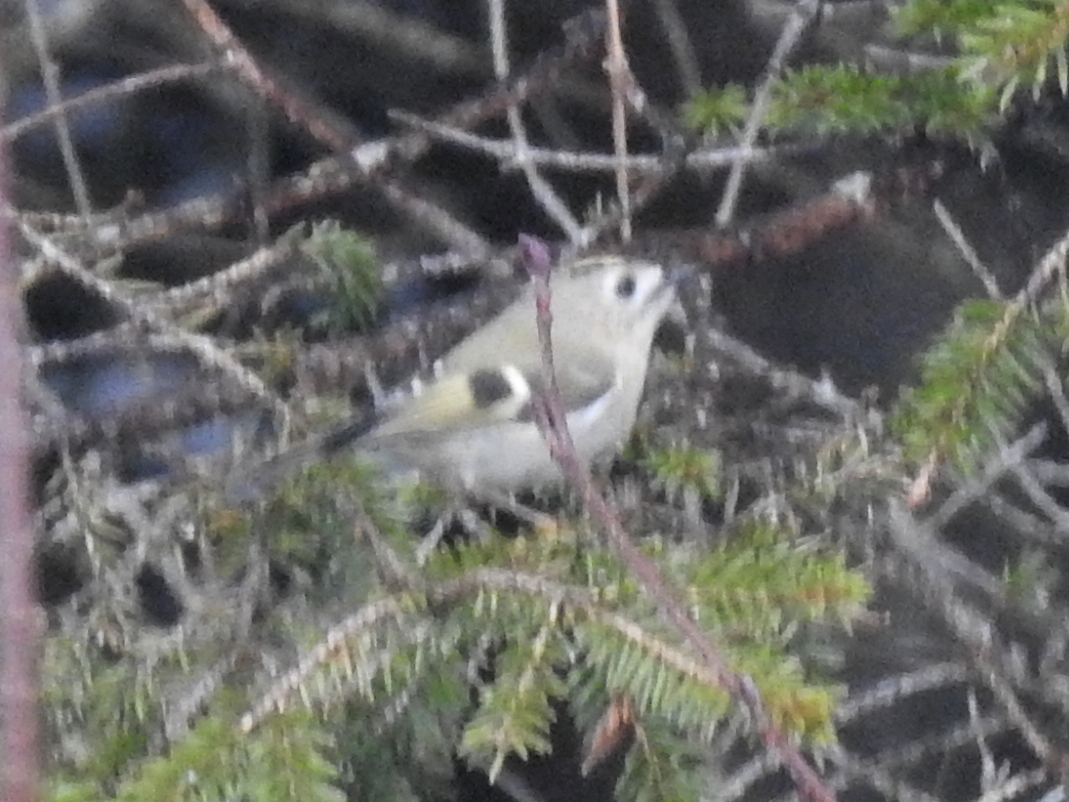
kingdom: Animalia
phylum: Chordata
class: Aves
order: Passeriformes
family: Regulidae
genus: Regulus
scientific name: Regulus regulus
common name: Goldcrest
